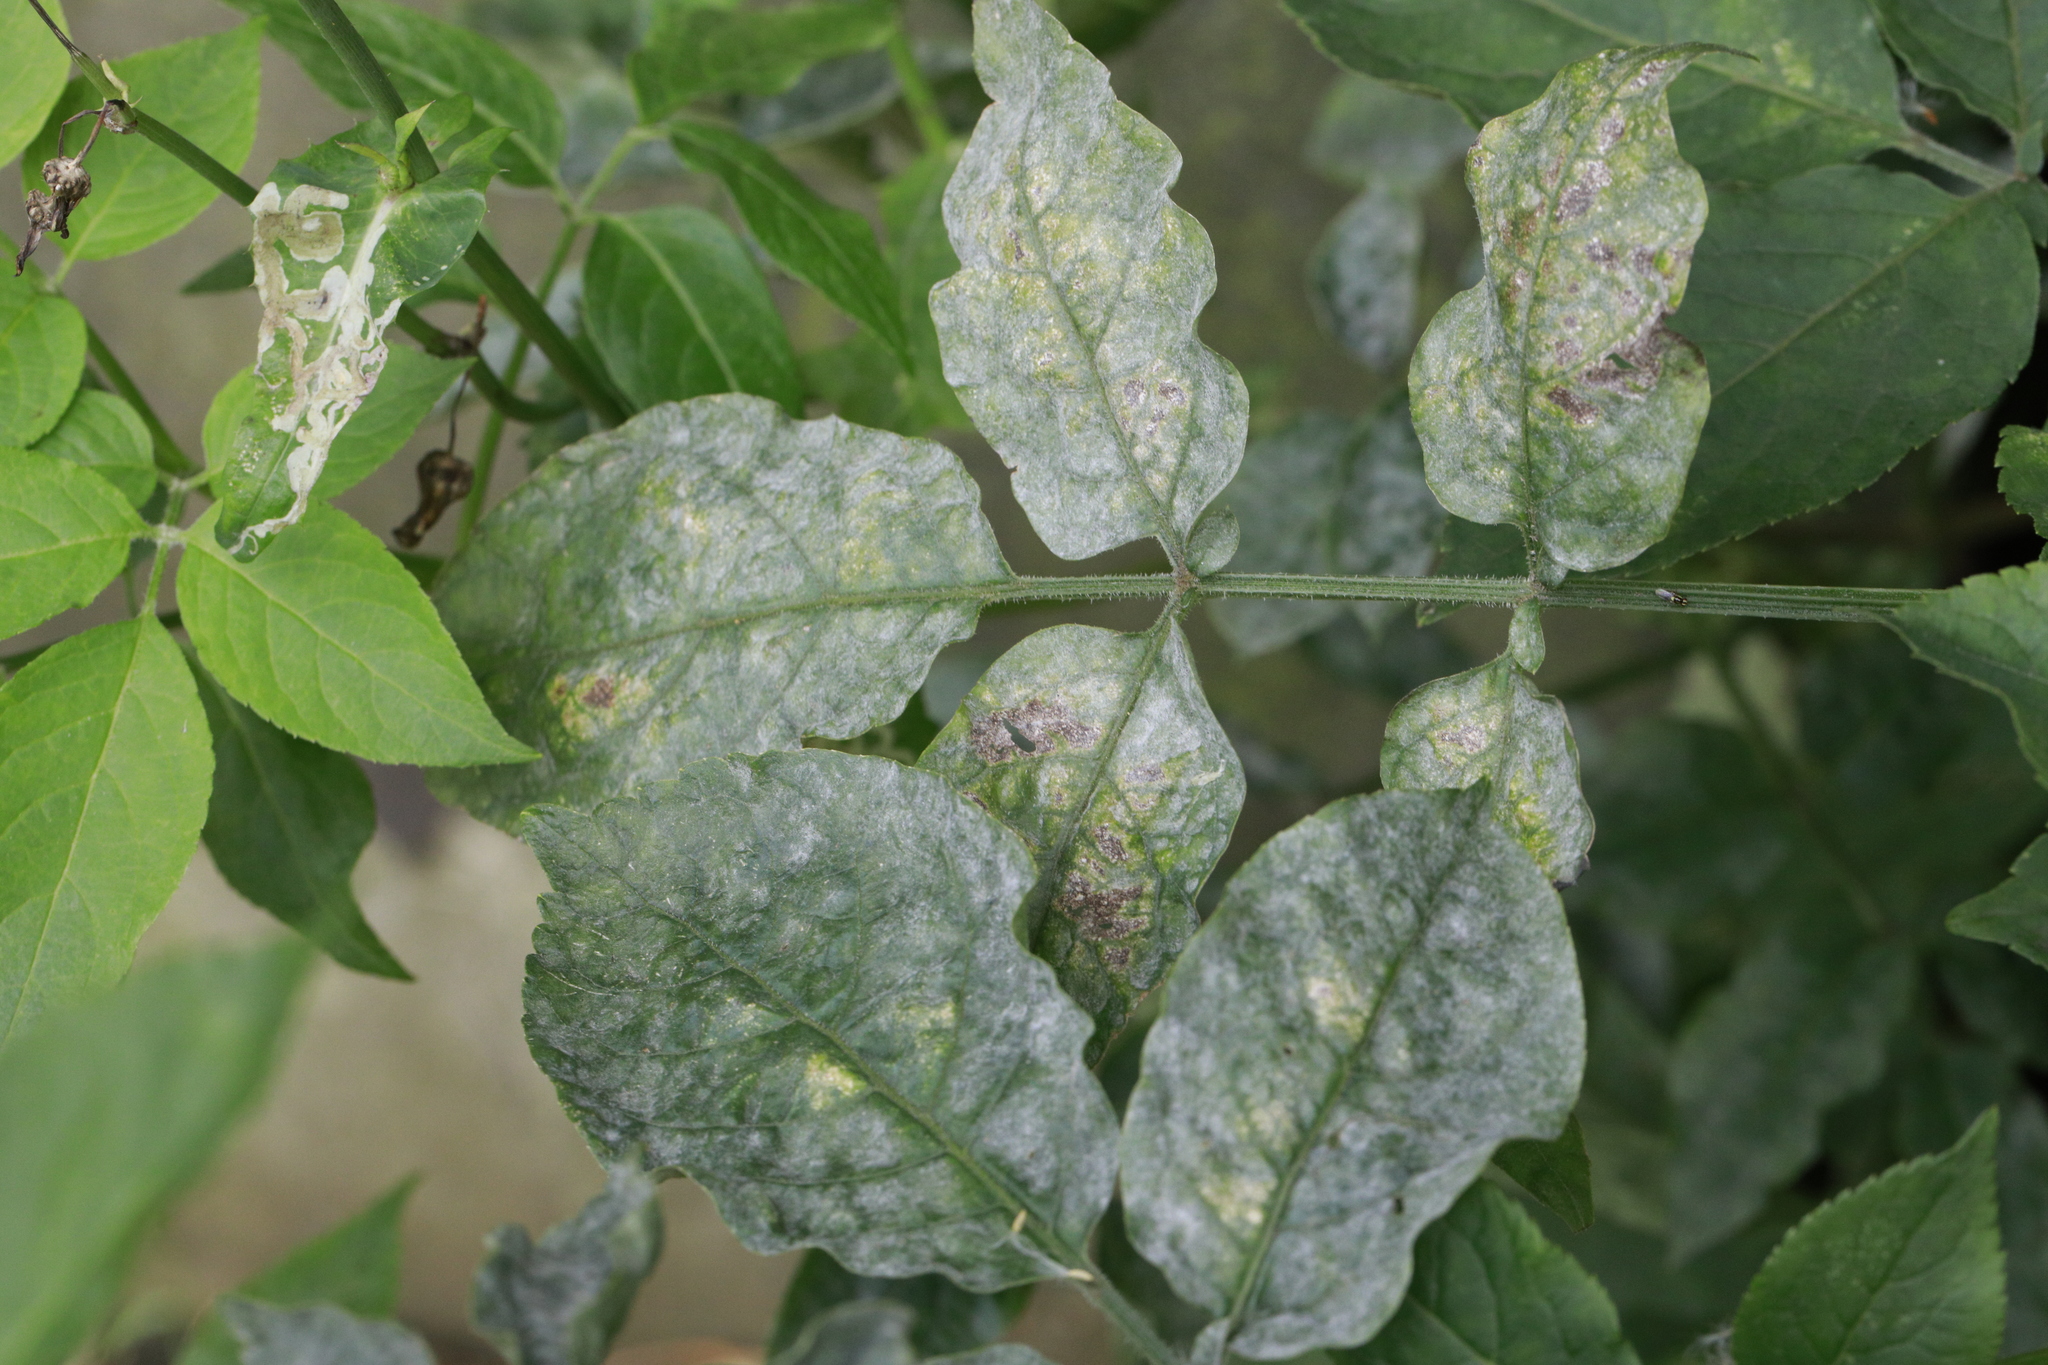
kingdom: Fungi
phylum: Ascomycota
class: Leotiomycetes
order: Helotiales
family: Erysiphaceae
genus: Erysiphe
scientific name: Erysiphe sambuci
